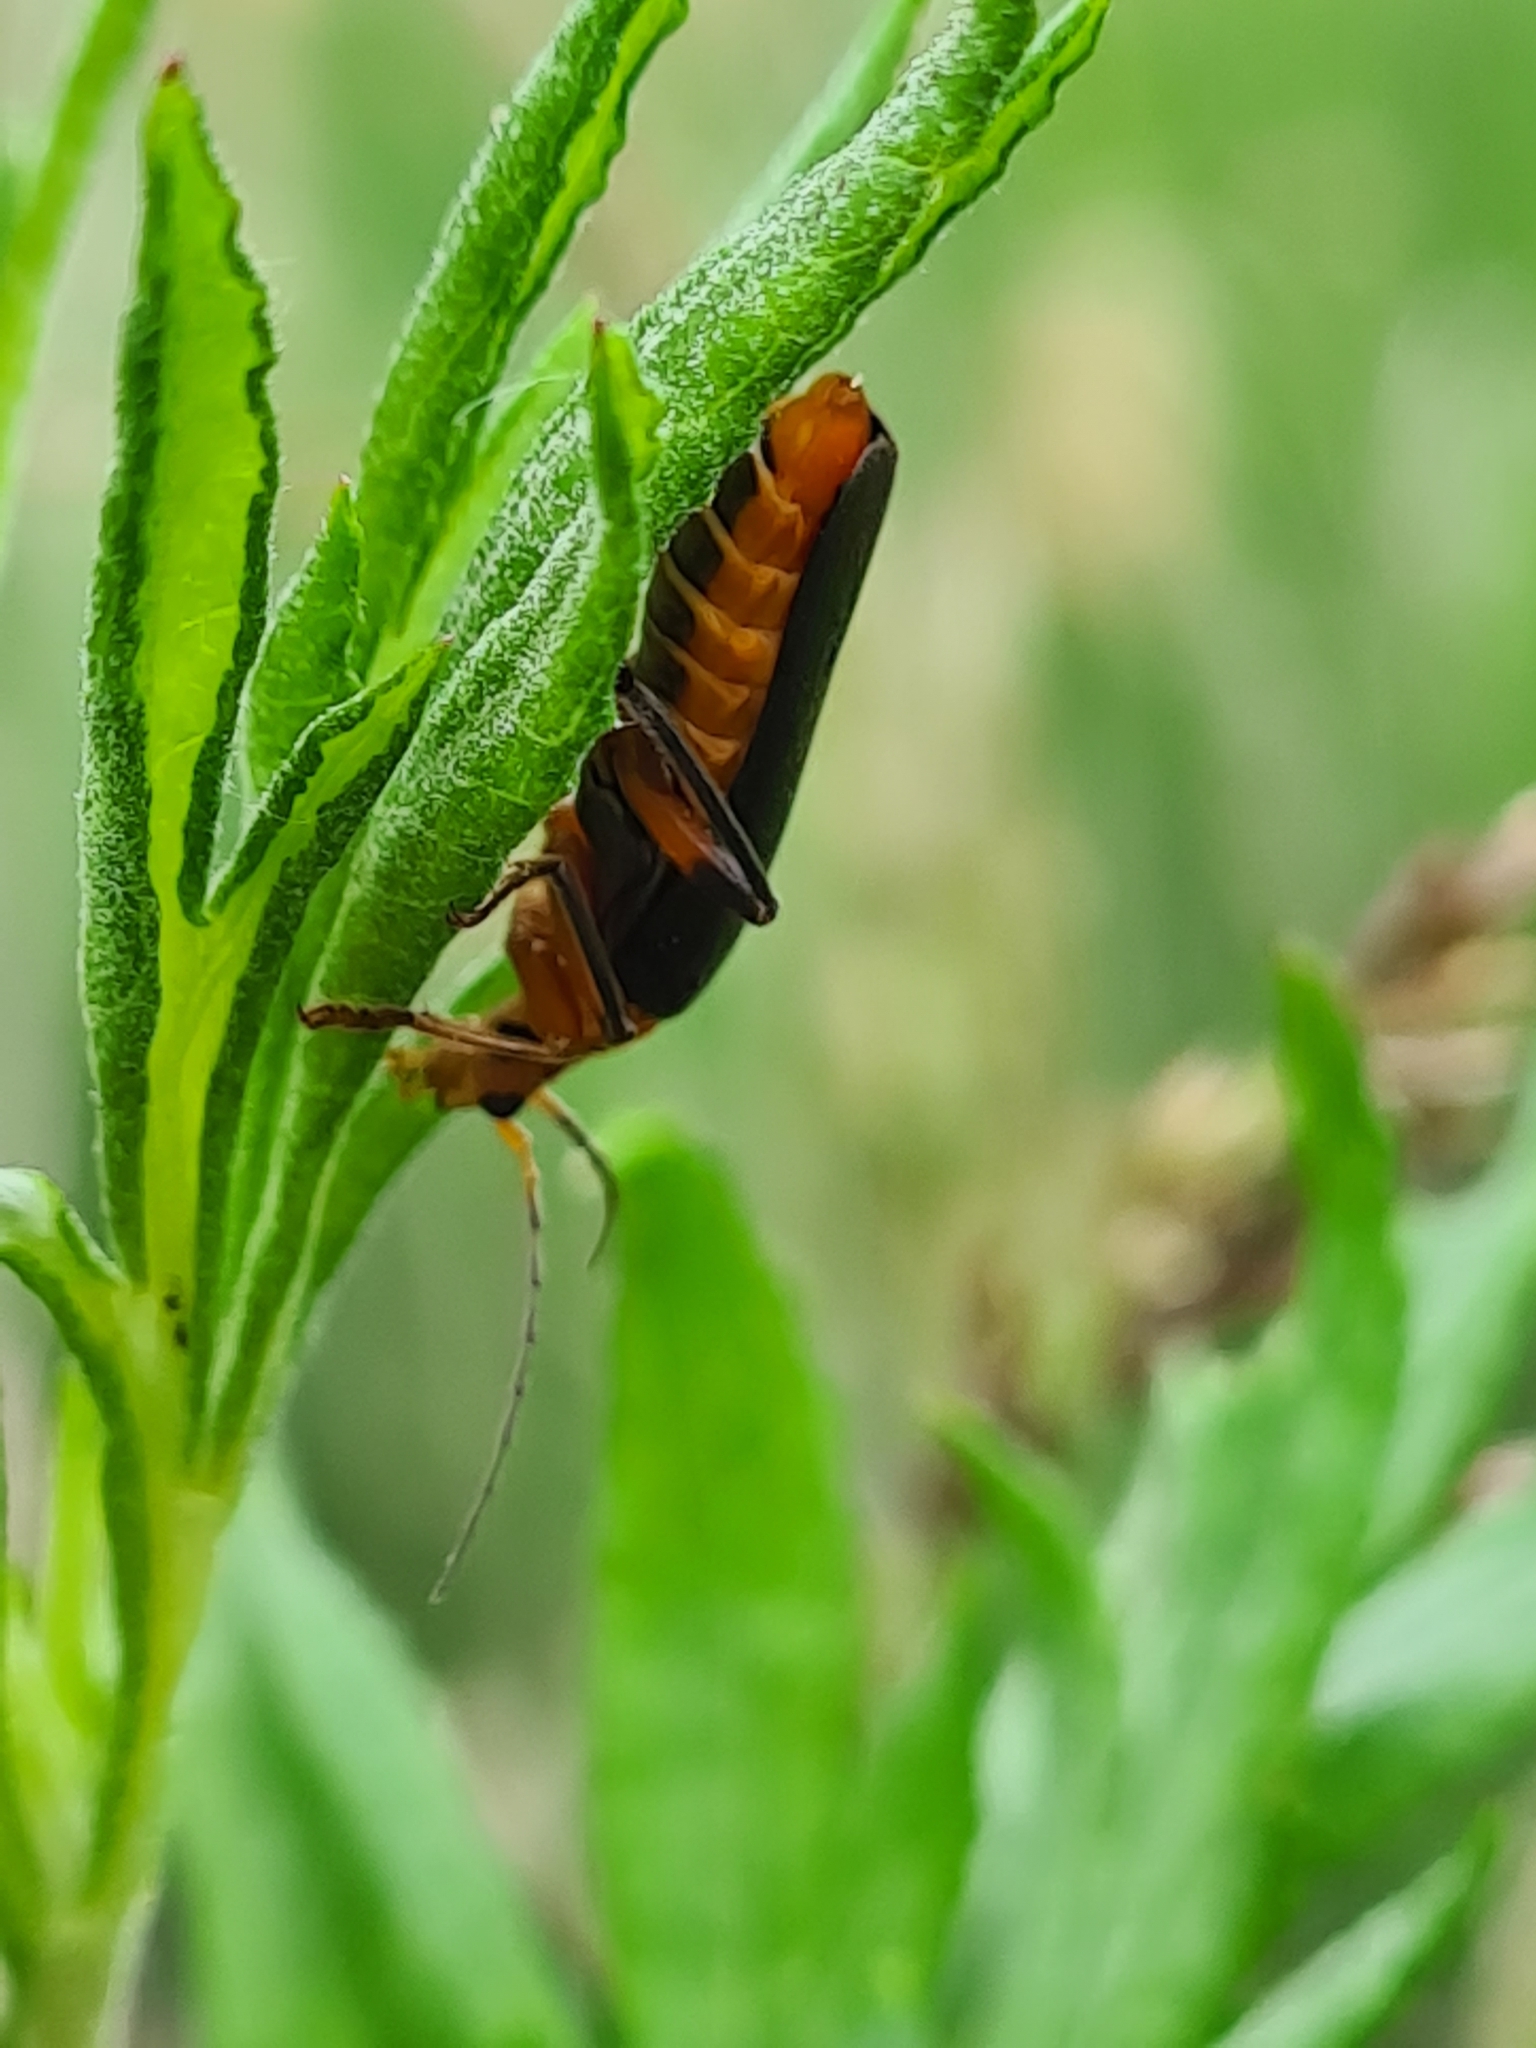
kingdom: Animalia
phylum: Arthropoda
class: Insecta
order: Coleoptera
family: Cantharidae
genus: Cantharis
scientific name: Cantharis livida
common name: Livid soldier beetle
